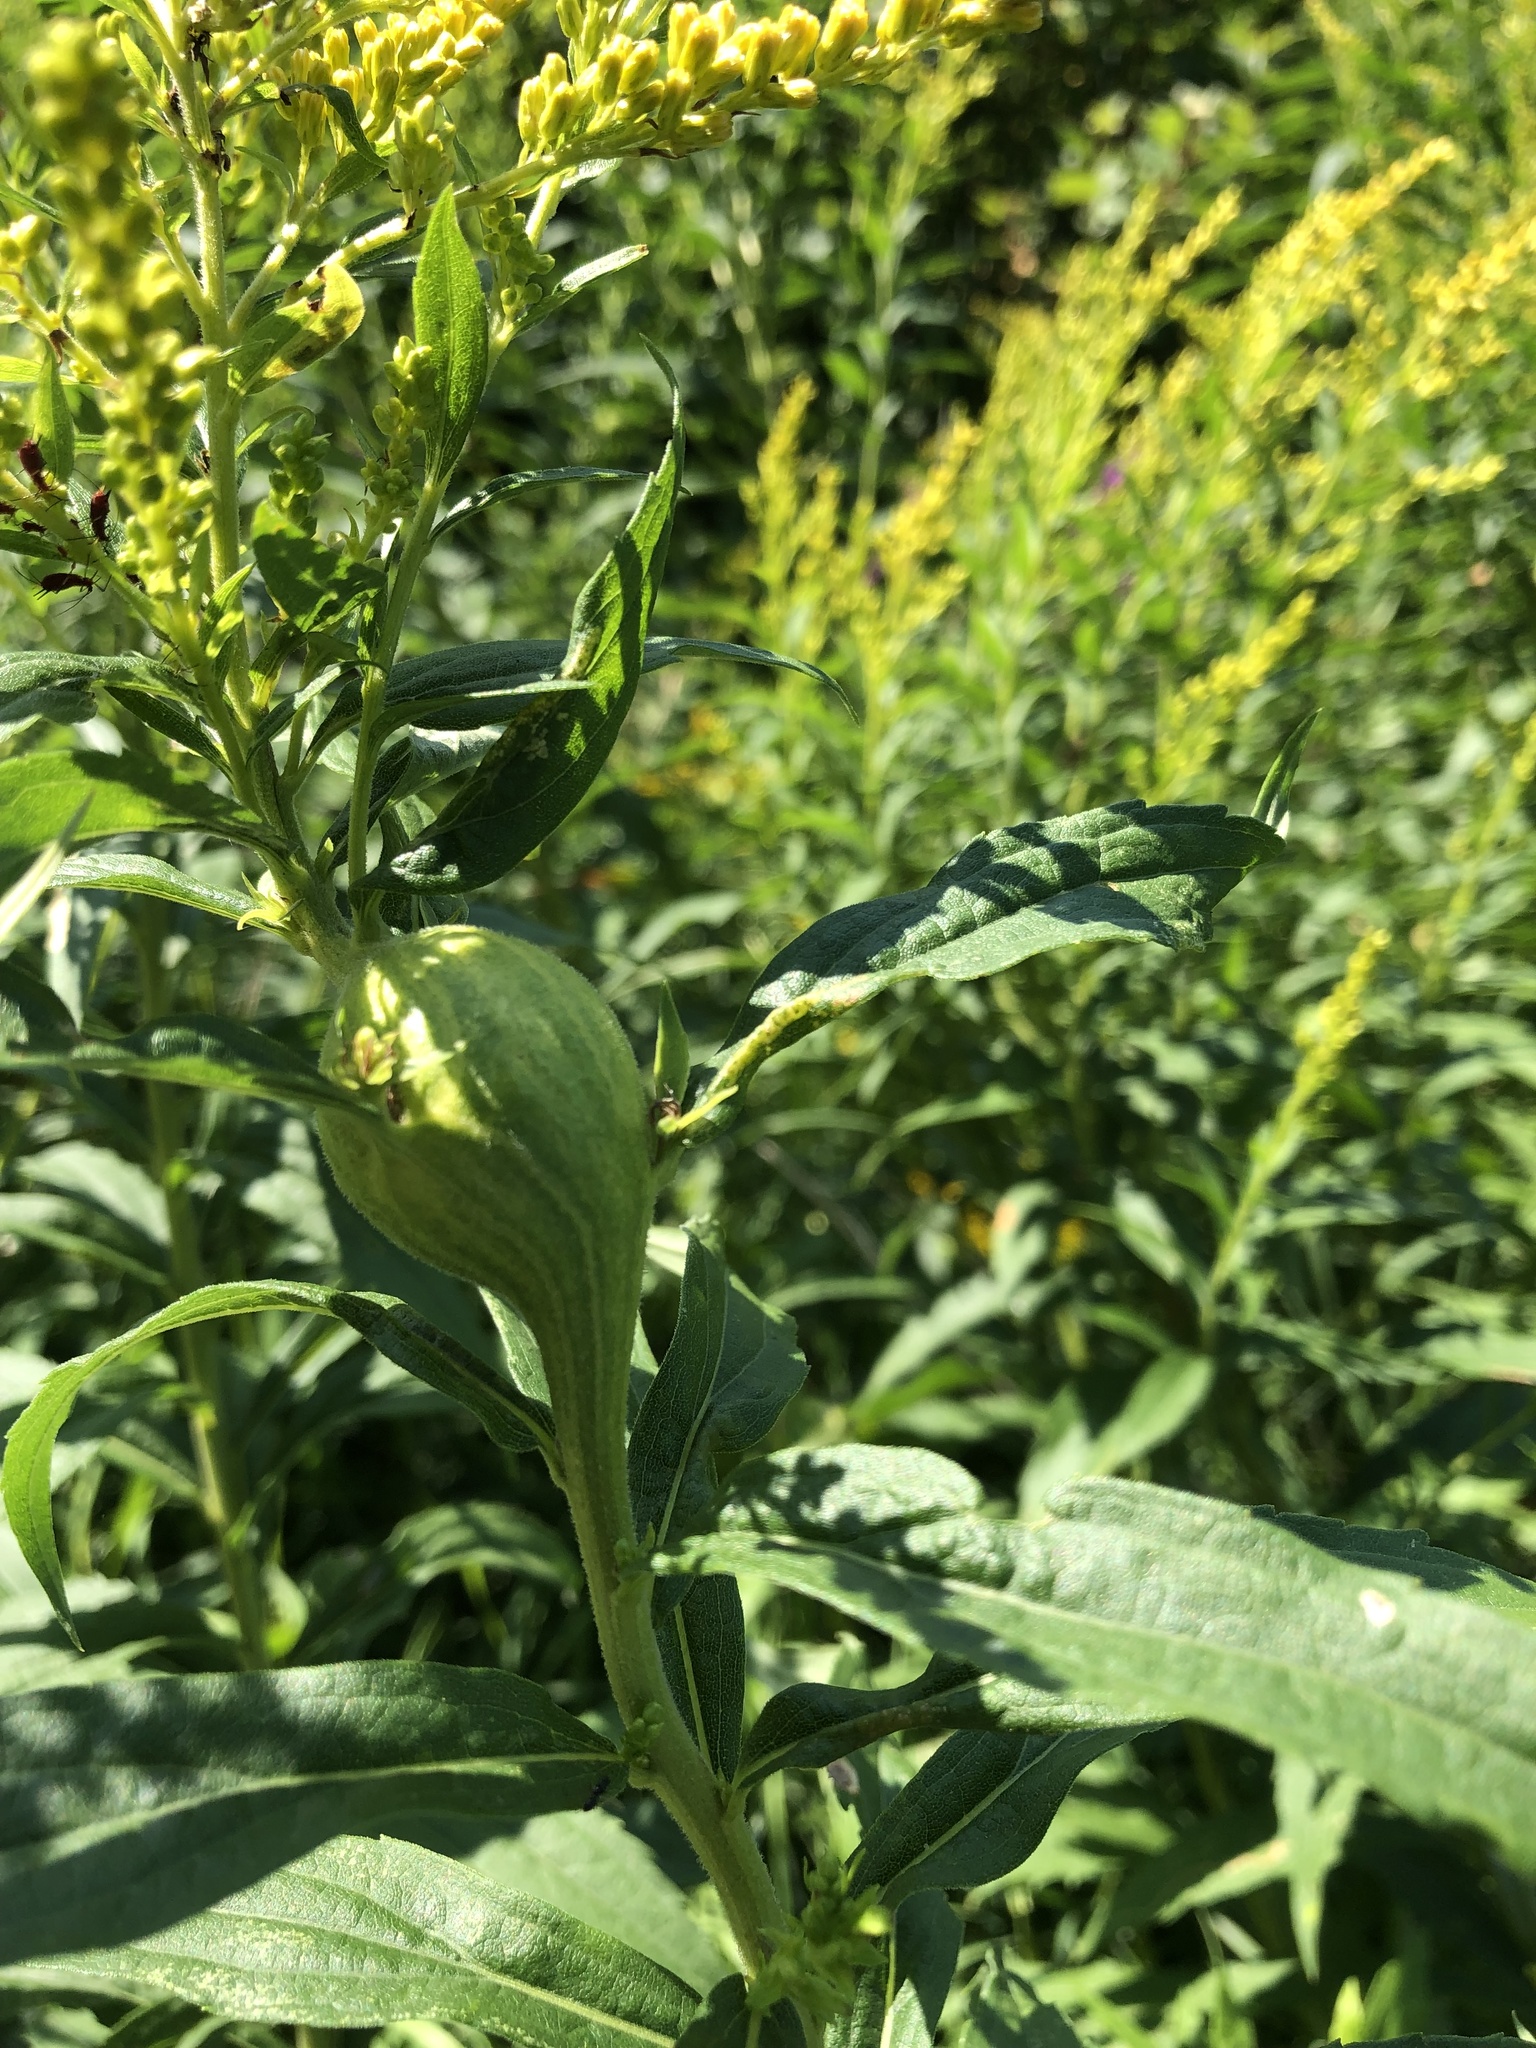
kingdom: Animalia
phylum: Arthropoda
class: Insecta
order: Diptera
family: Tephritidae
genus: Eurosta
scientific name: Eurosta solidaginis
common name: Goldenrod gall fly
